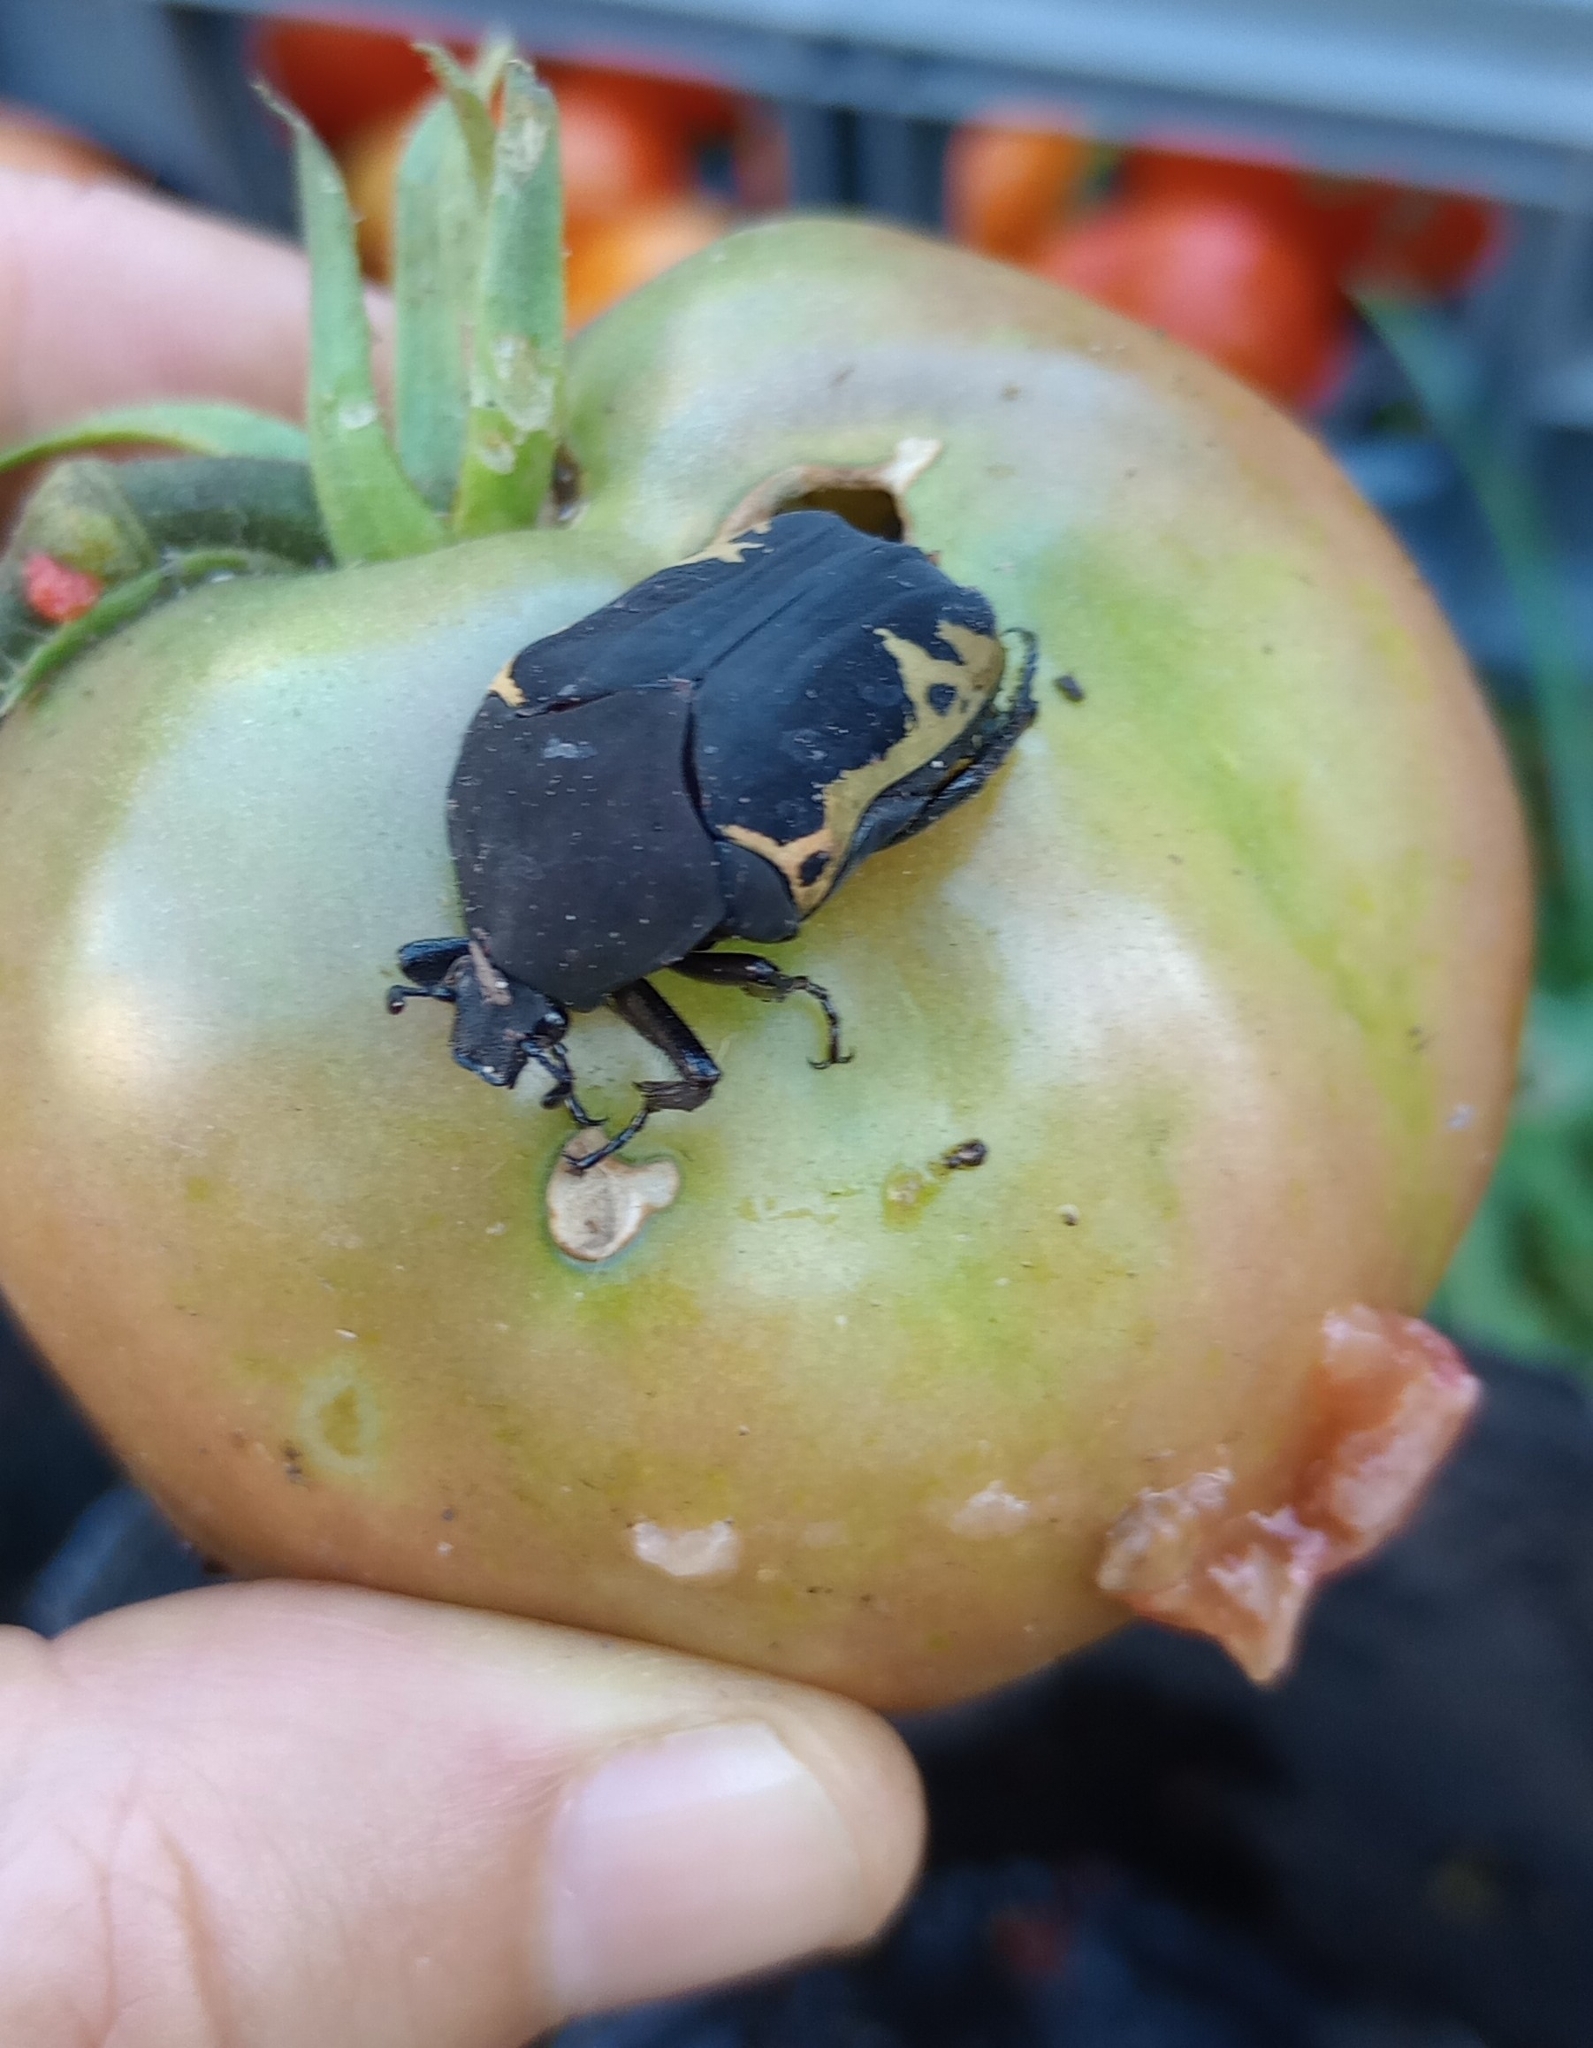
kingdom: Animalia
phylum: Arthropoda
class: Insecta
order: Coleoptera
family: Scarabaeidae
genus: Gymnetis
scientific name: Gymnetis pudibunda
